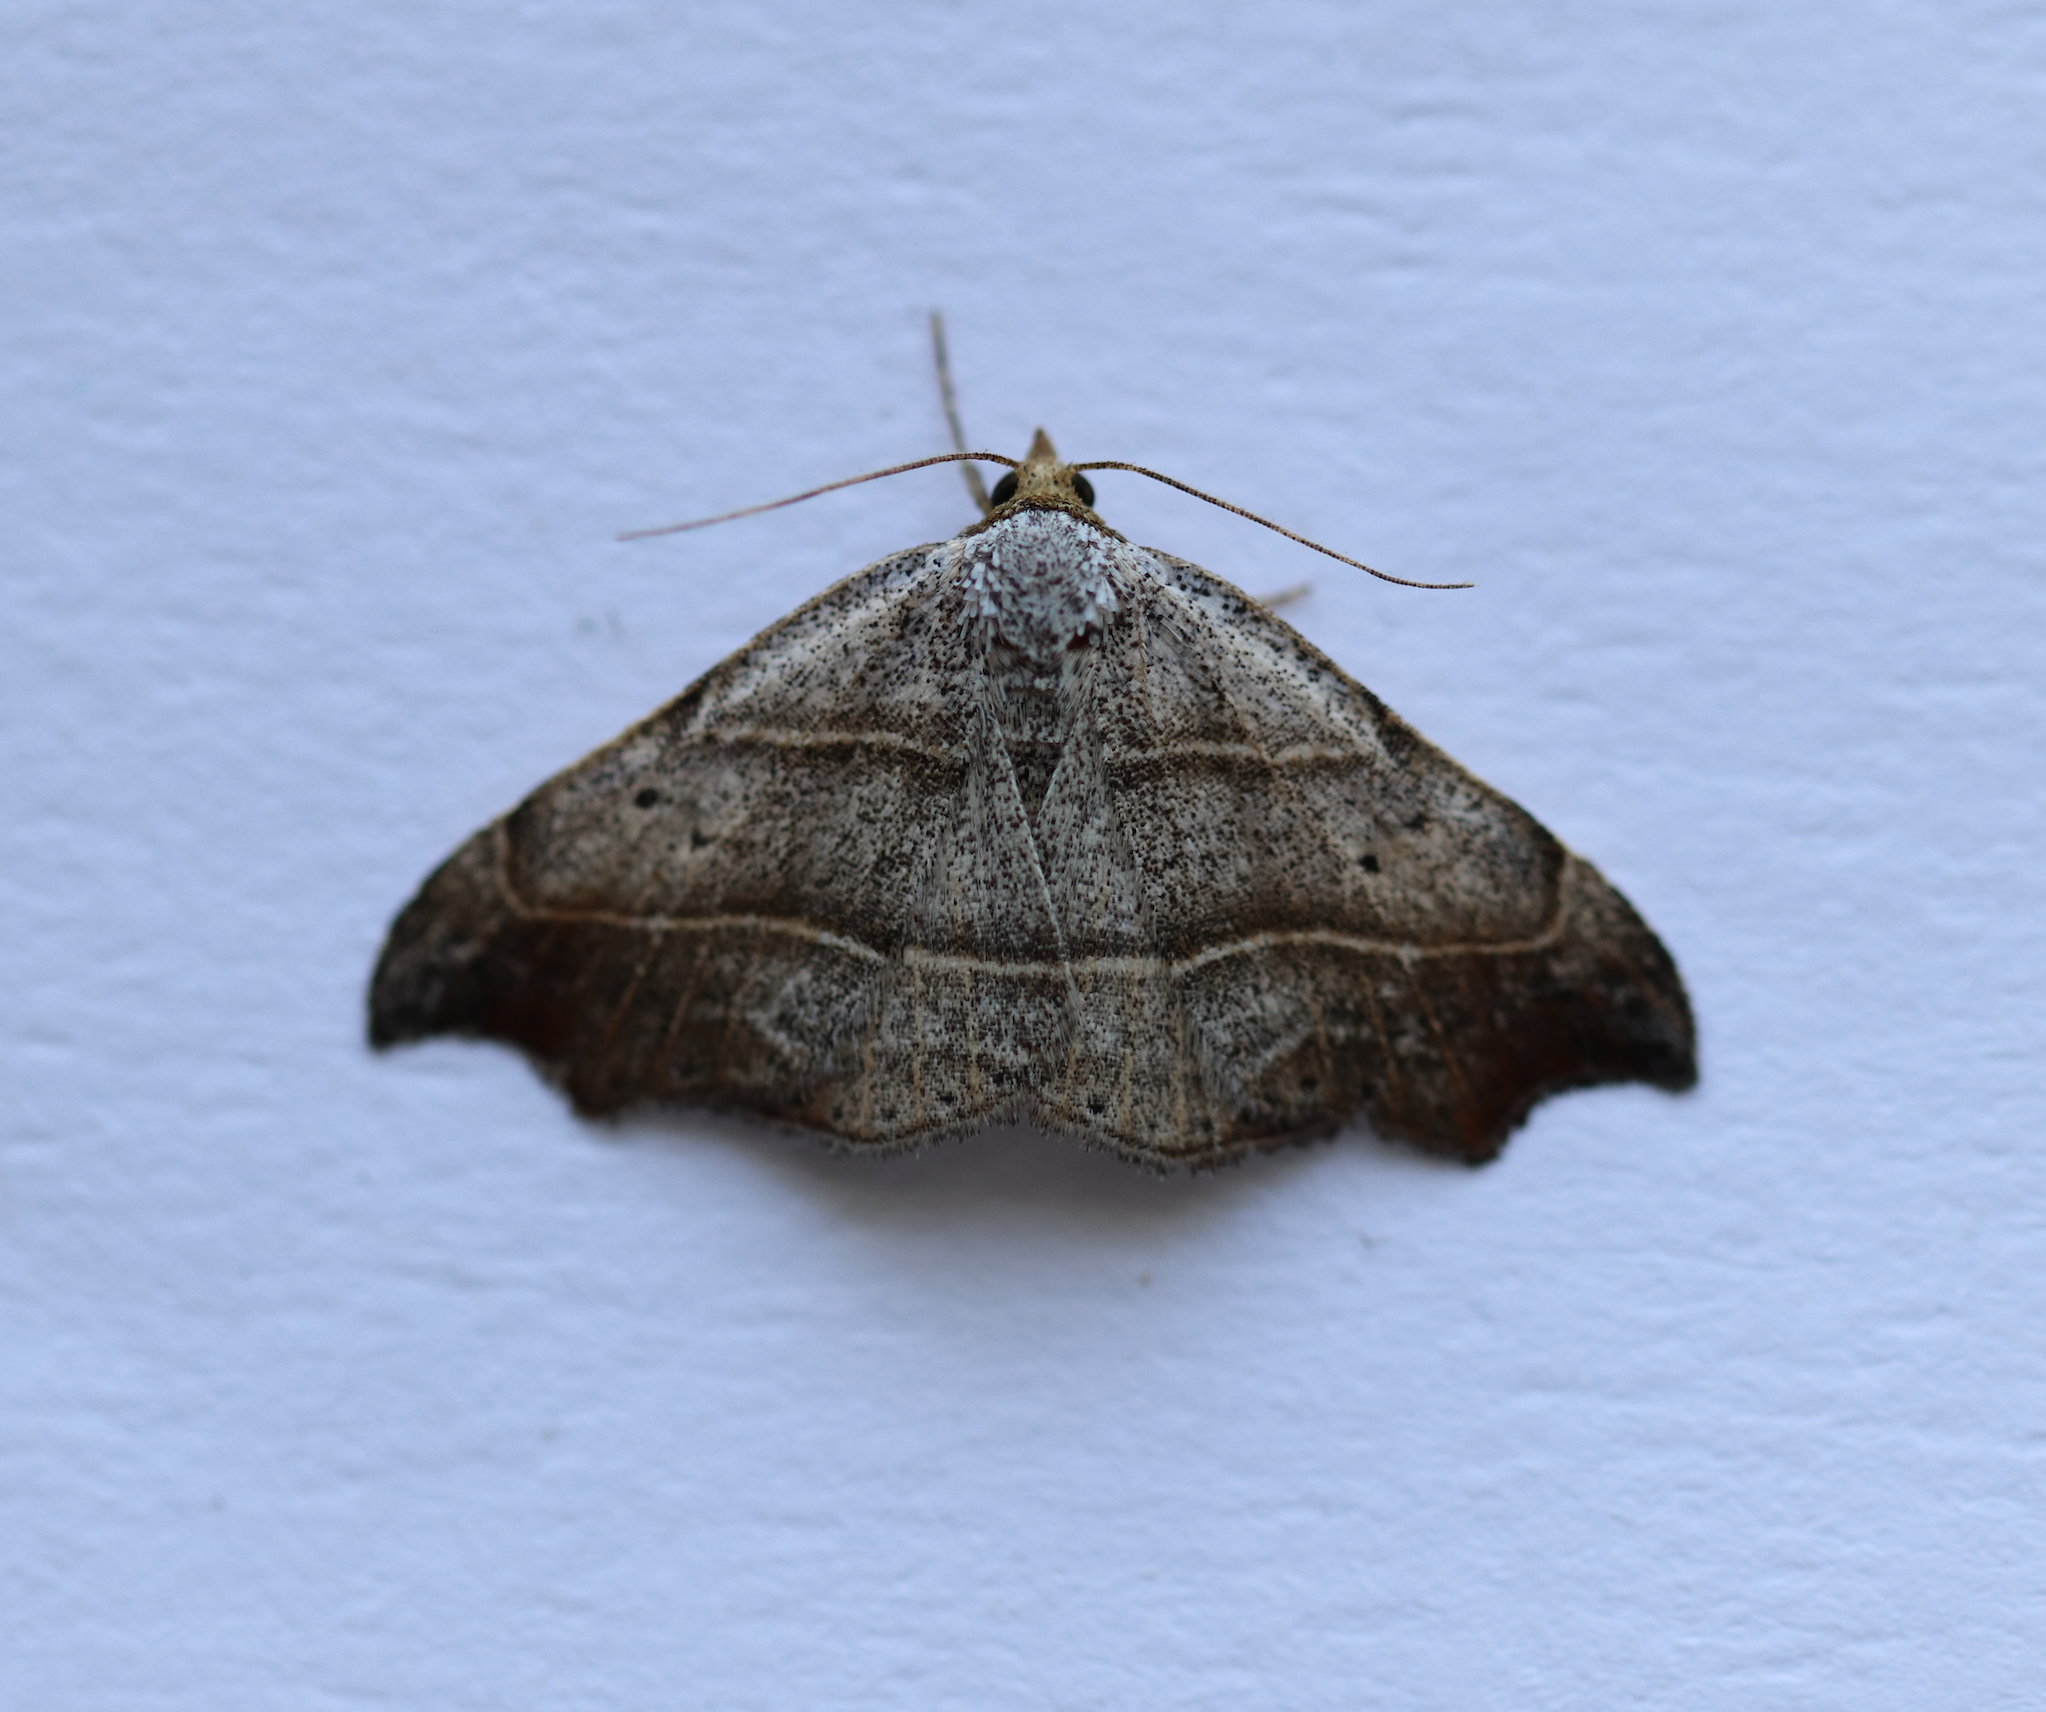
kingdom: Animalia
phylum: Arthropoda
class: Insecta
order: Lepidoptera
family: Erebidae
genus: Laspeyria
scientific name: Laspeyria flexula
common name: Beautiful hook-tip
